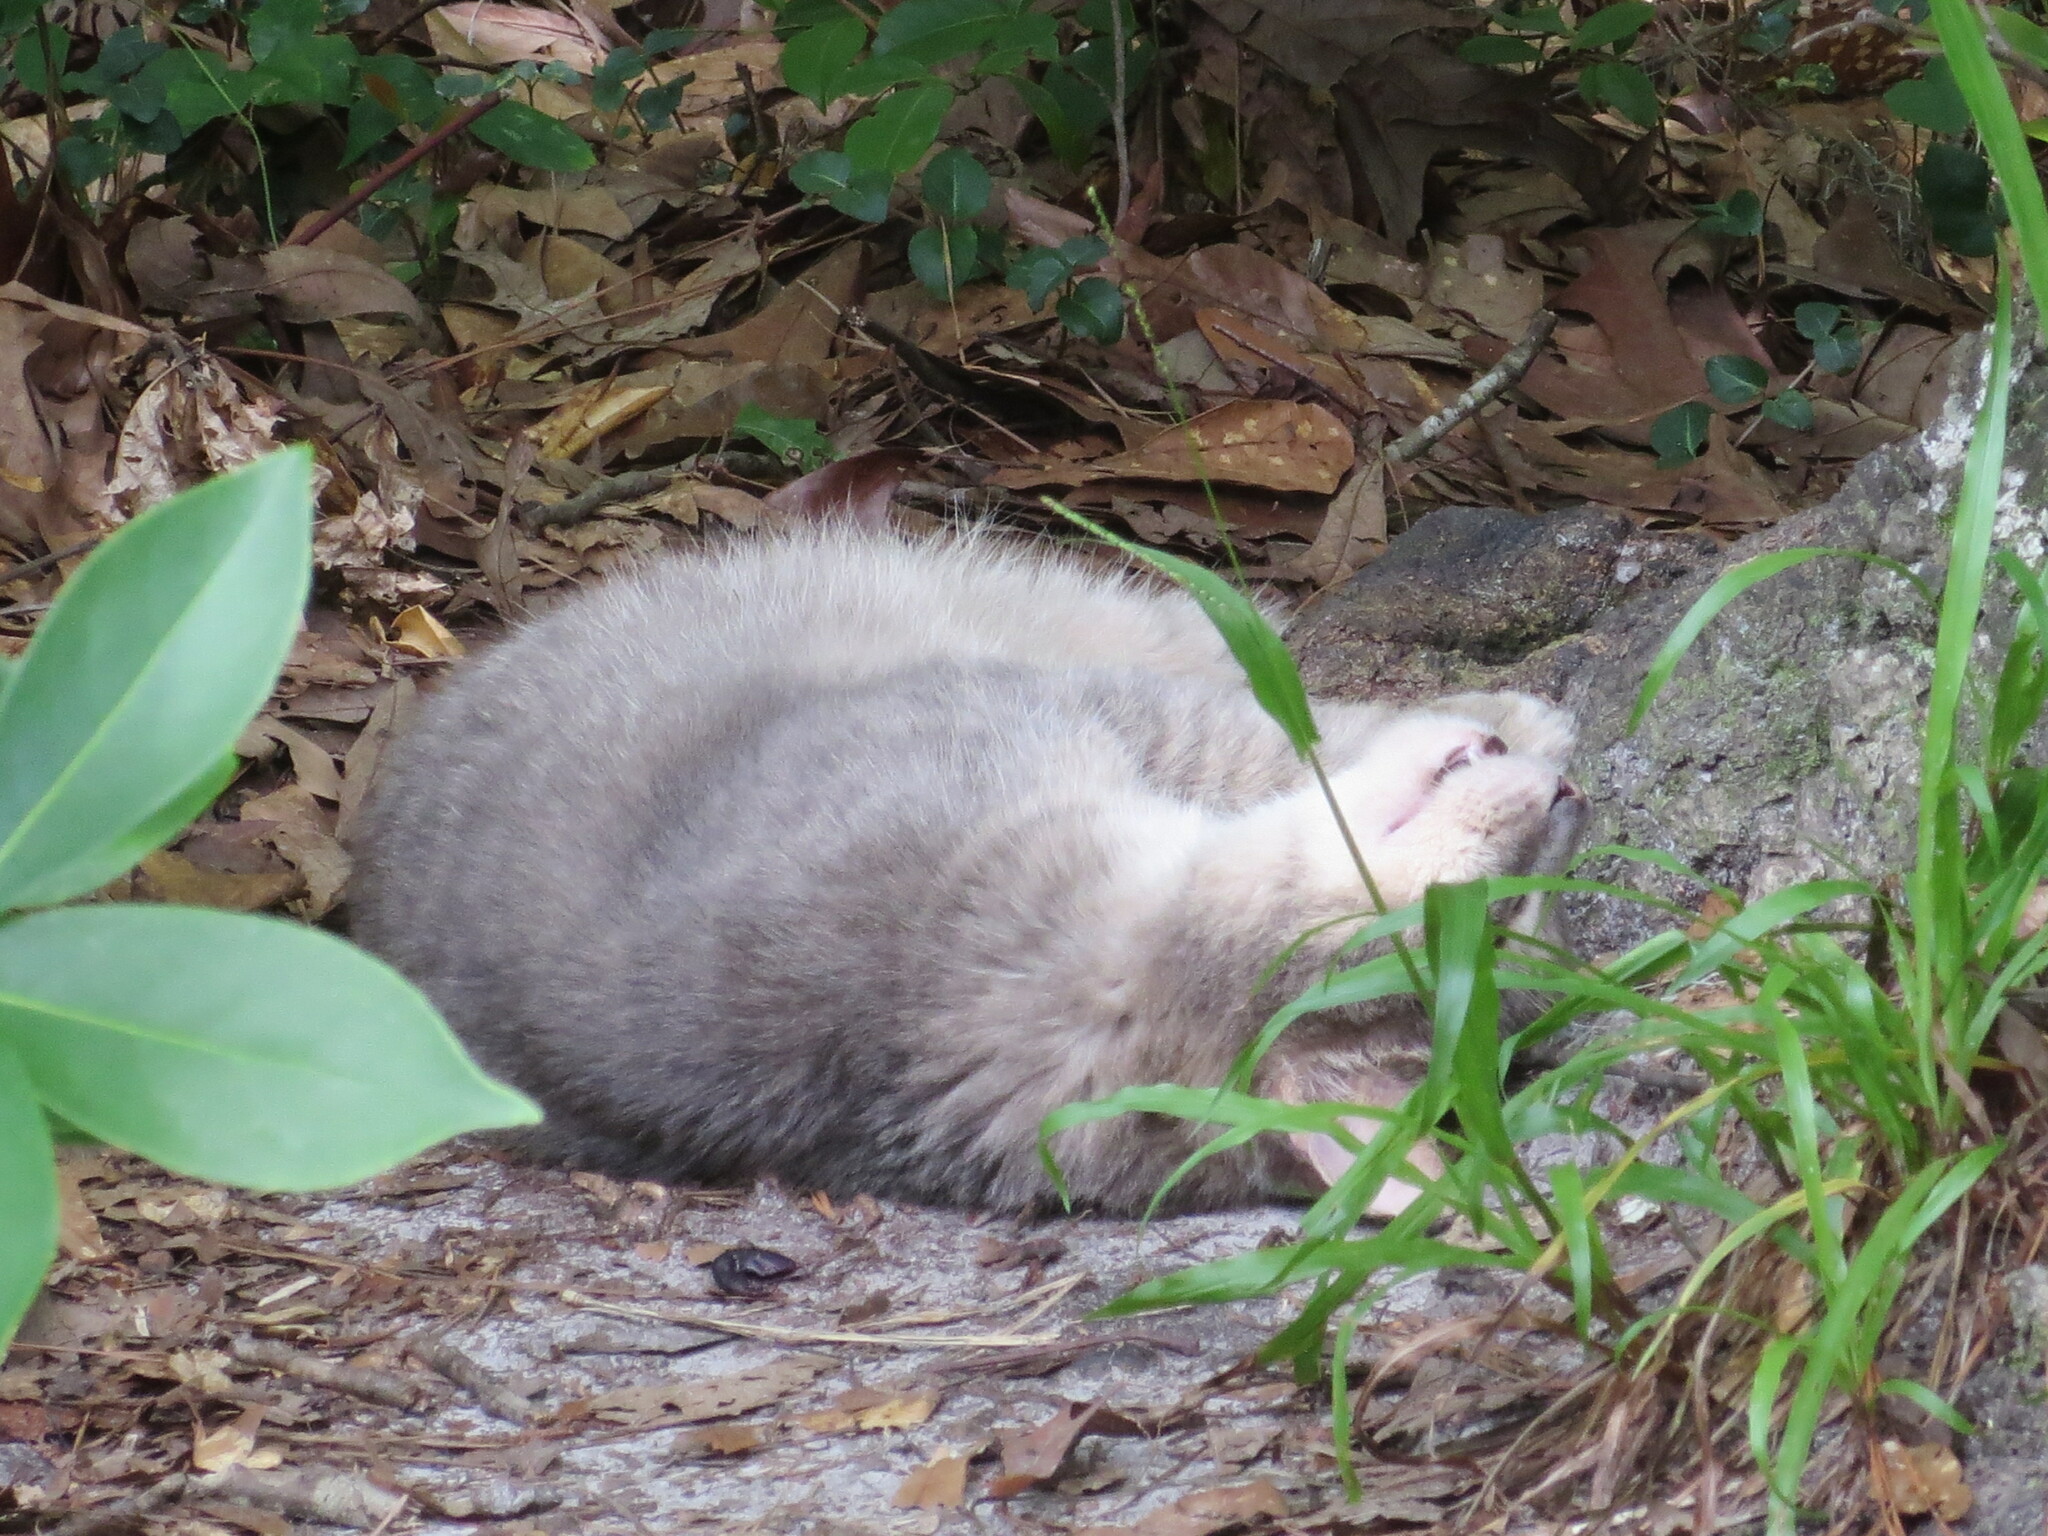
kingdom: Animalia
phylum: Chordata
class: Mammalia
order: Carnivora
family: Felidae
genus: Felis
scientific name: Felis catus
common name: Domestic cat
